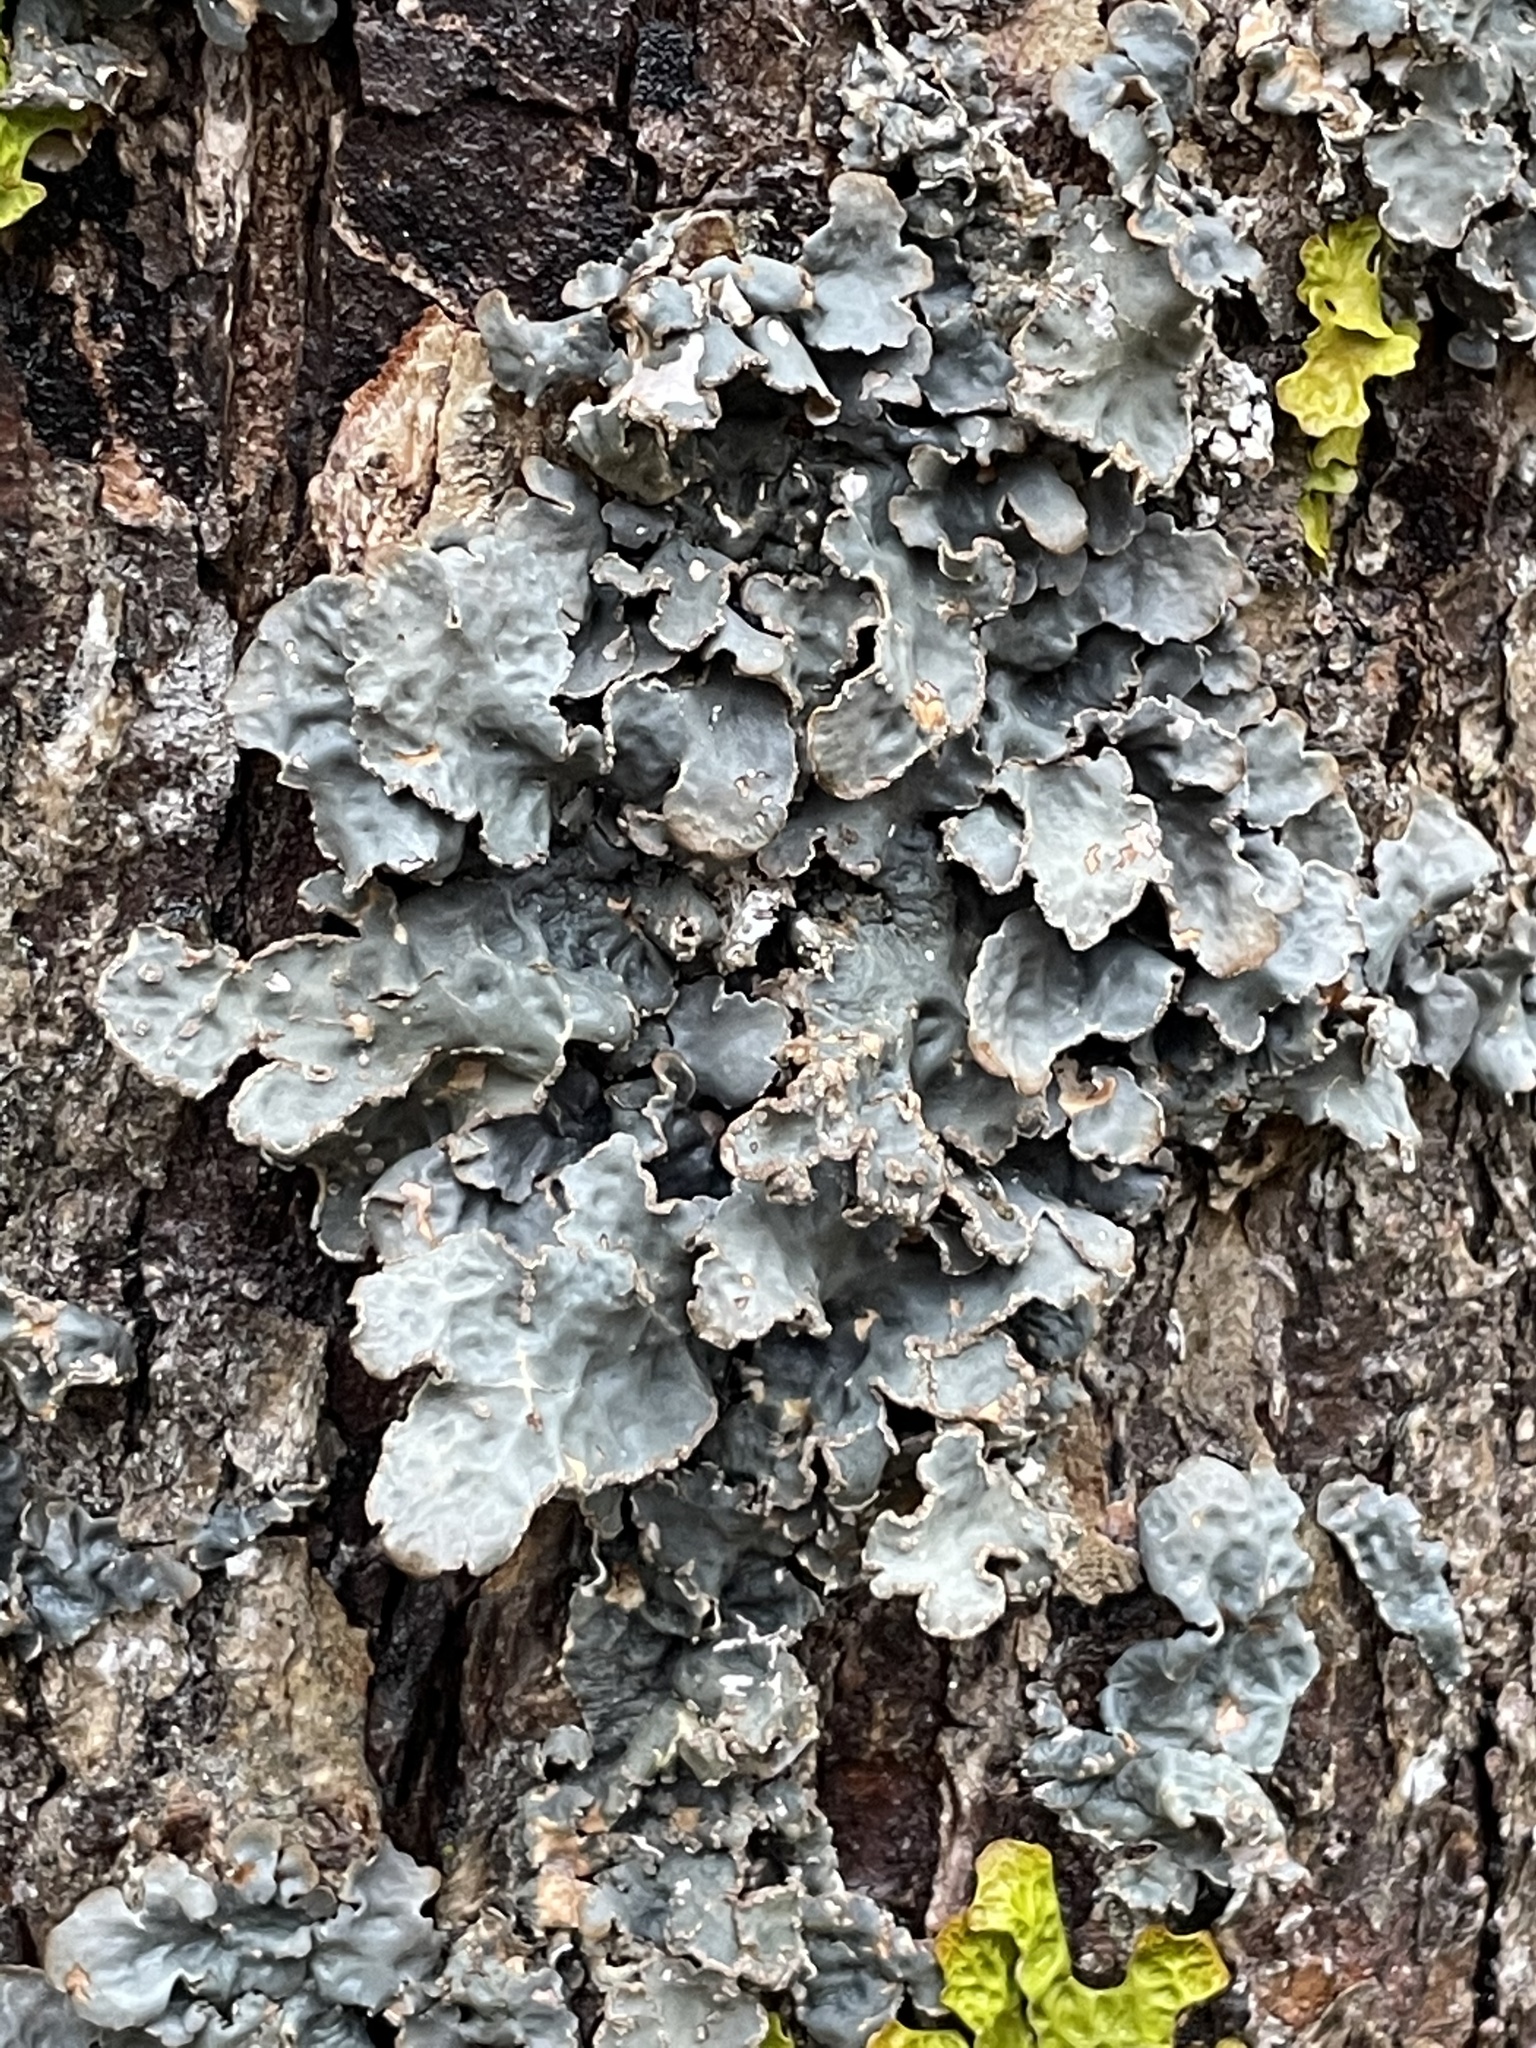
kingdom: Fungi
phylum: Ascomycota
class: Lecanoromycetes
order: Peltigerales
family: Lobariaceae
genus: Lobarina
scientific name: Lobarina scrobiculata
